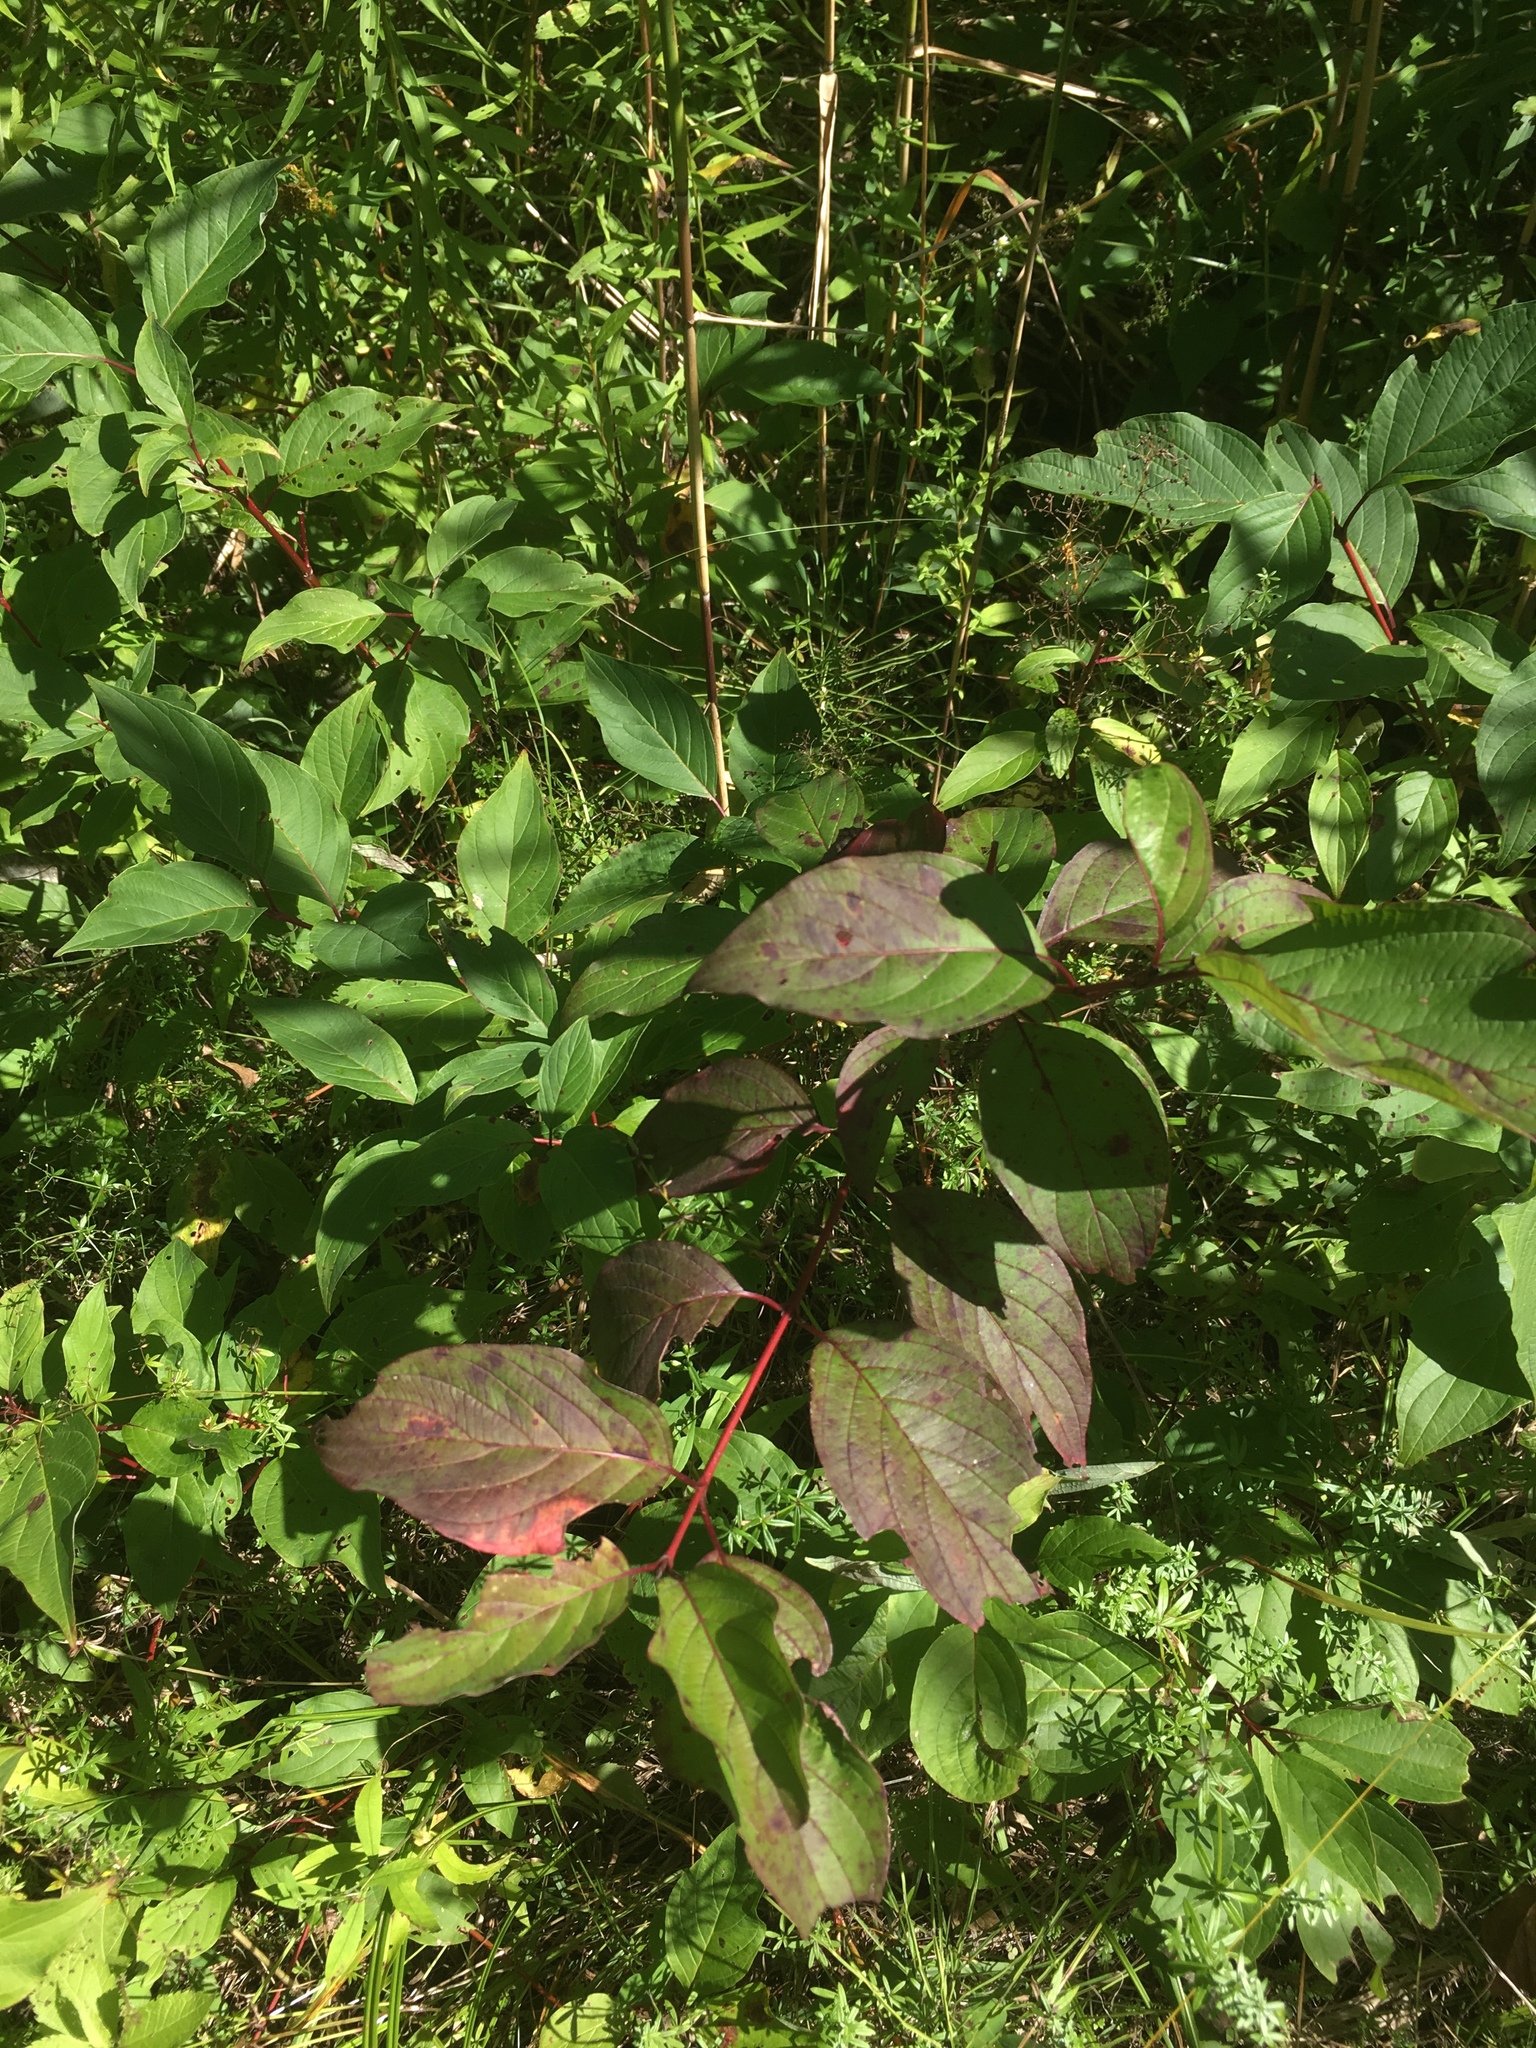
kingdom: Plantae
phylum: Tracheophyta
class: Magnoliopsida
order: Cornales
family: Cornaceae
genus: Cornus
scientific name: Cornus sericea
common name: Red-osier dogwood
